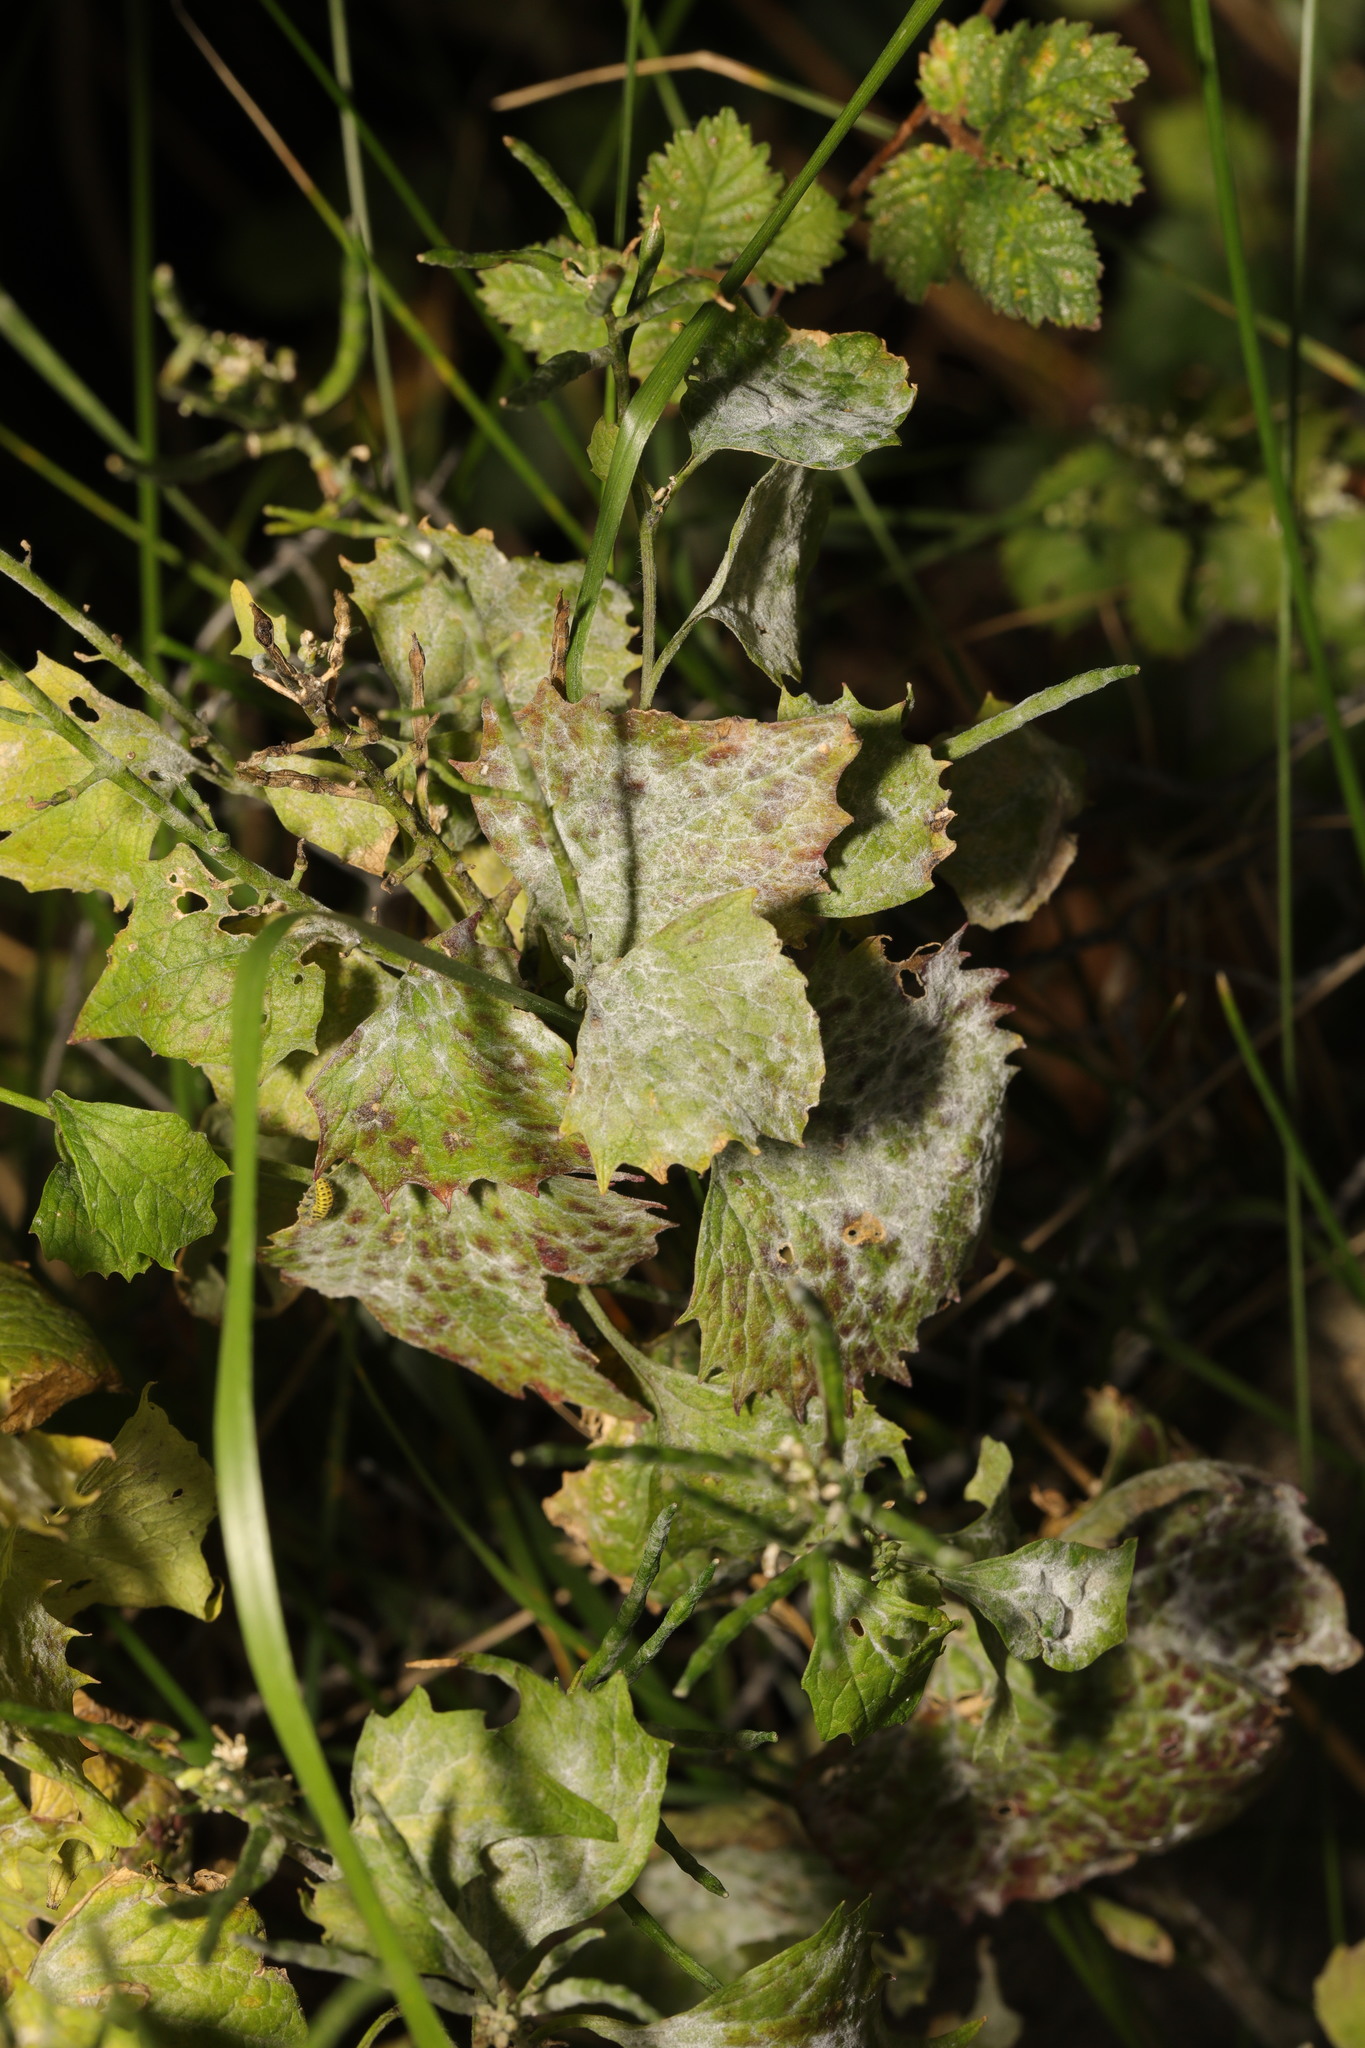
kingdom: Fungi
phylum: Ascomycota
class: Leotiomycetes
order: Helotiales
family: Erysiphaceae
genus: Erysiphe
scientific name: Erysiphe cruciferarum
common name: Brassica powdery mildew
